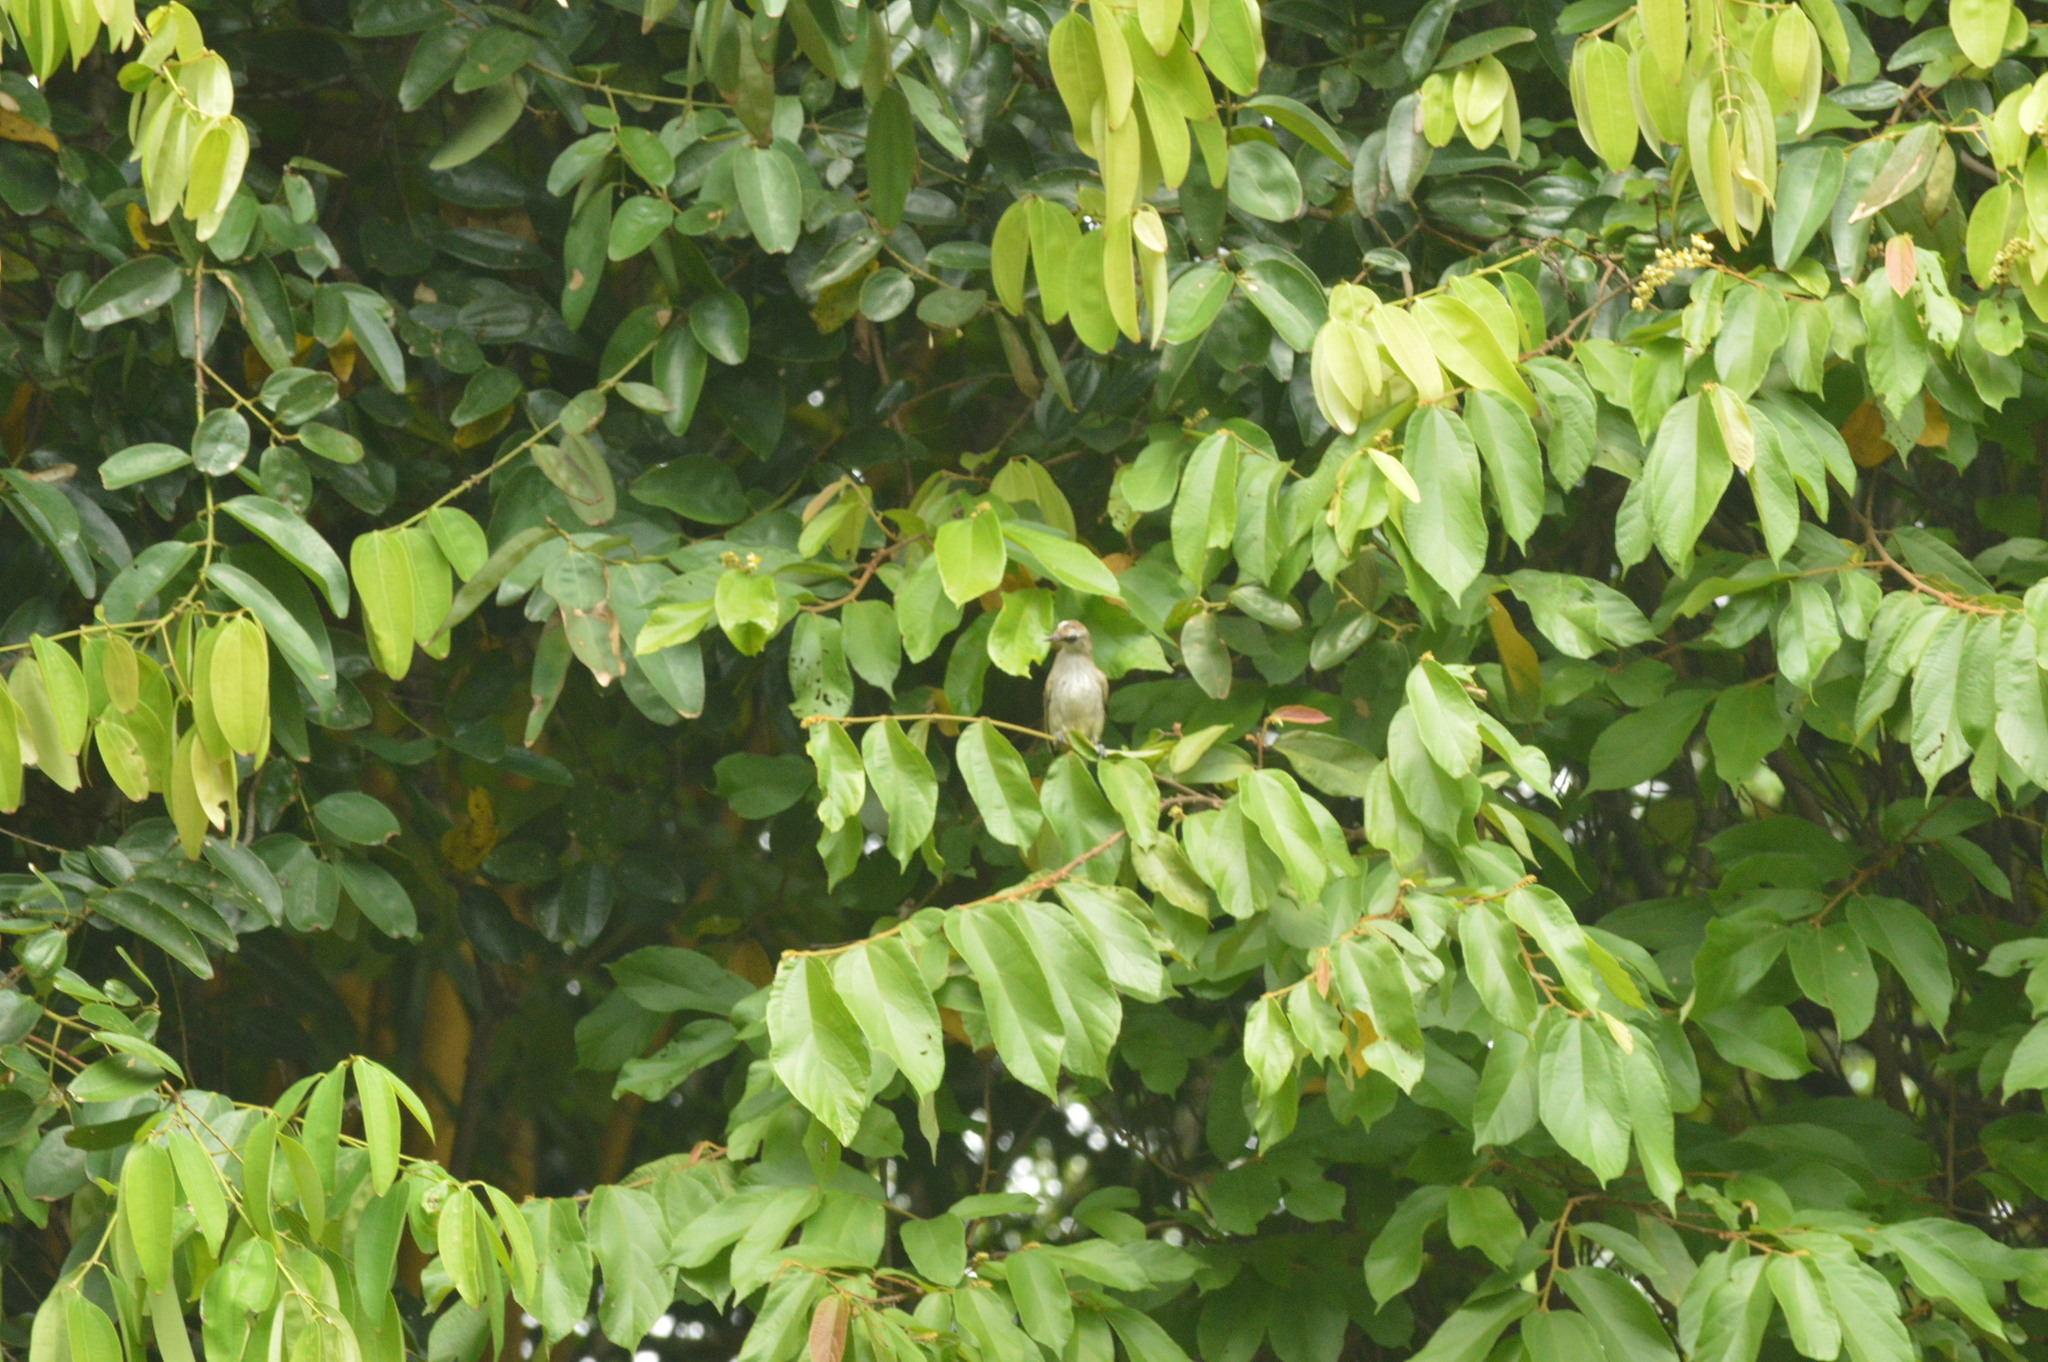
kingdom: Animalia
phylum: Chordata
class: Aves
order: Passeriformes
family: Pycnonotidae
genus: Pycnonotus
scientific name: Pycnonotus goiavier
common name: Yellow-vented bulbul
